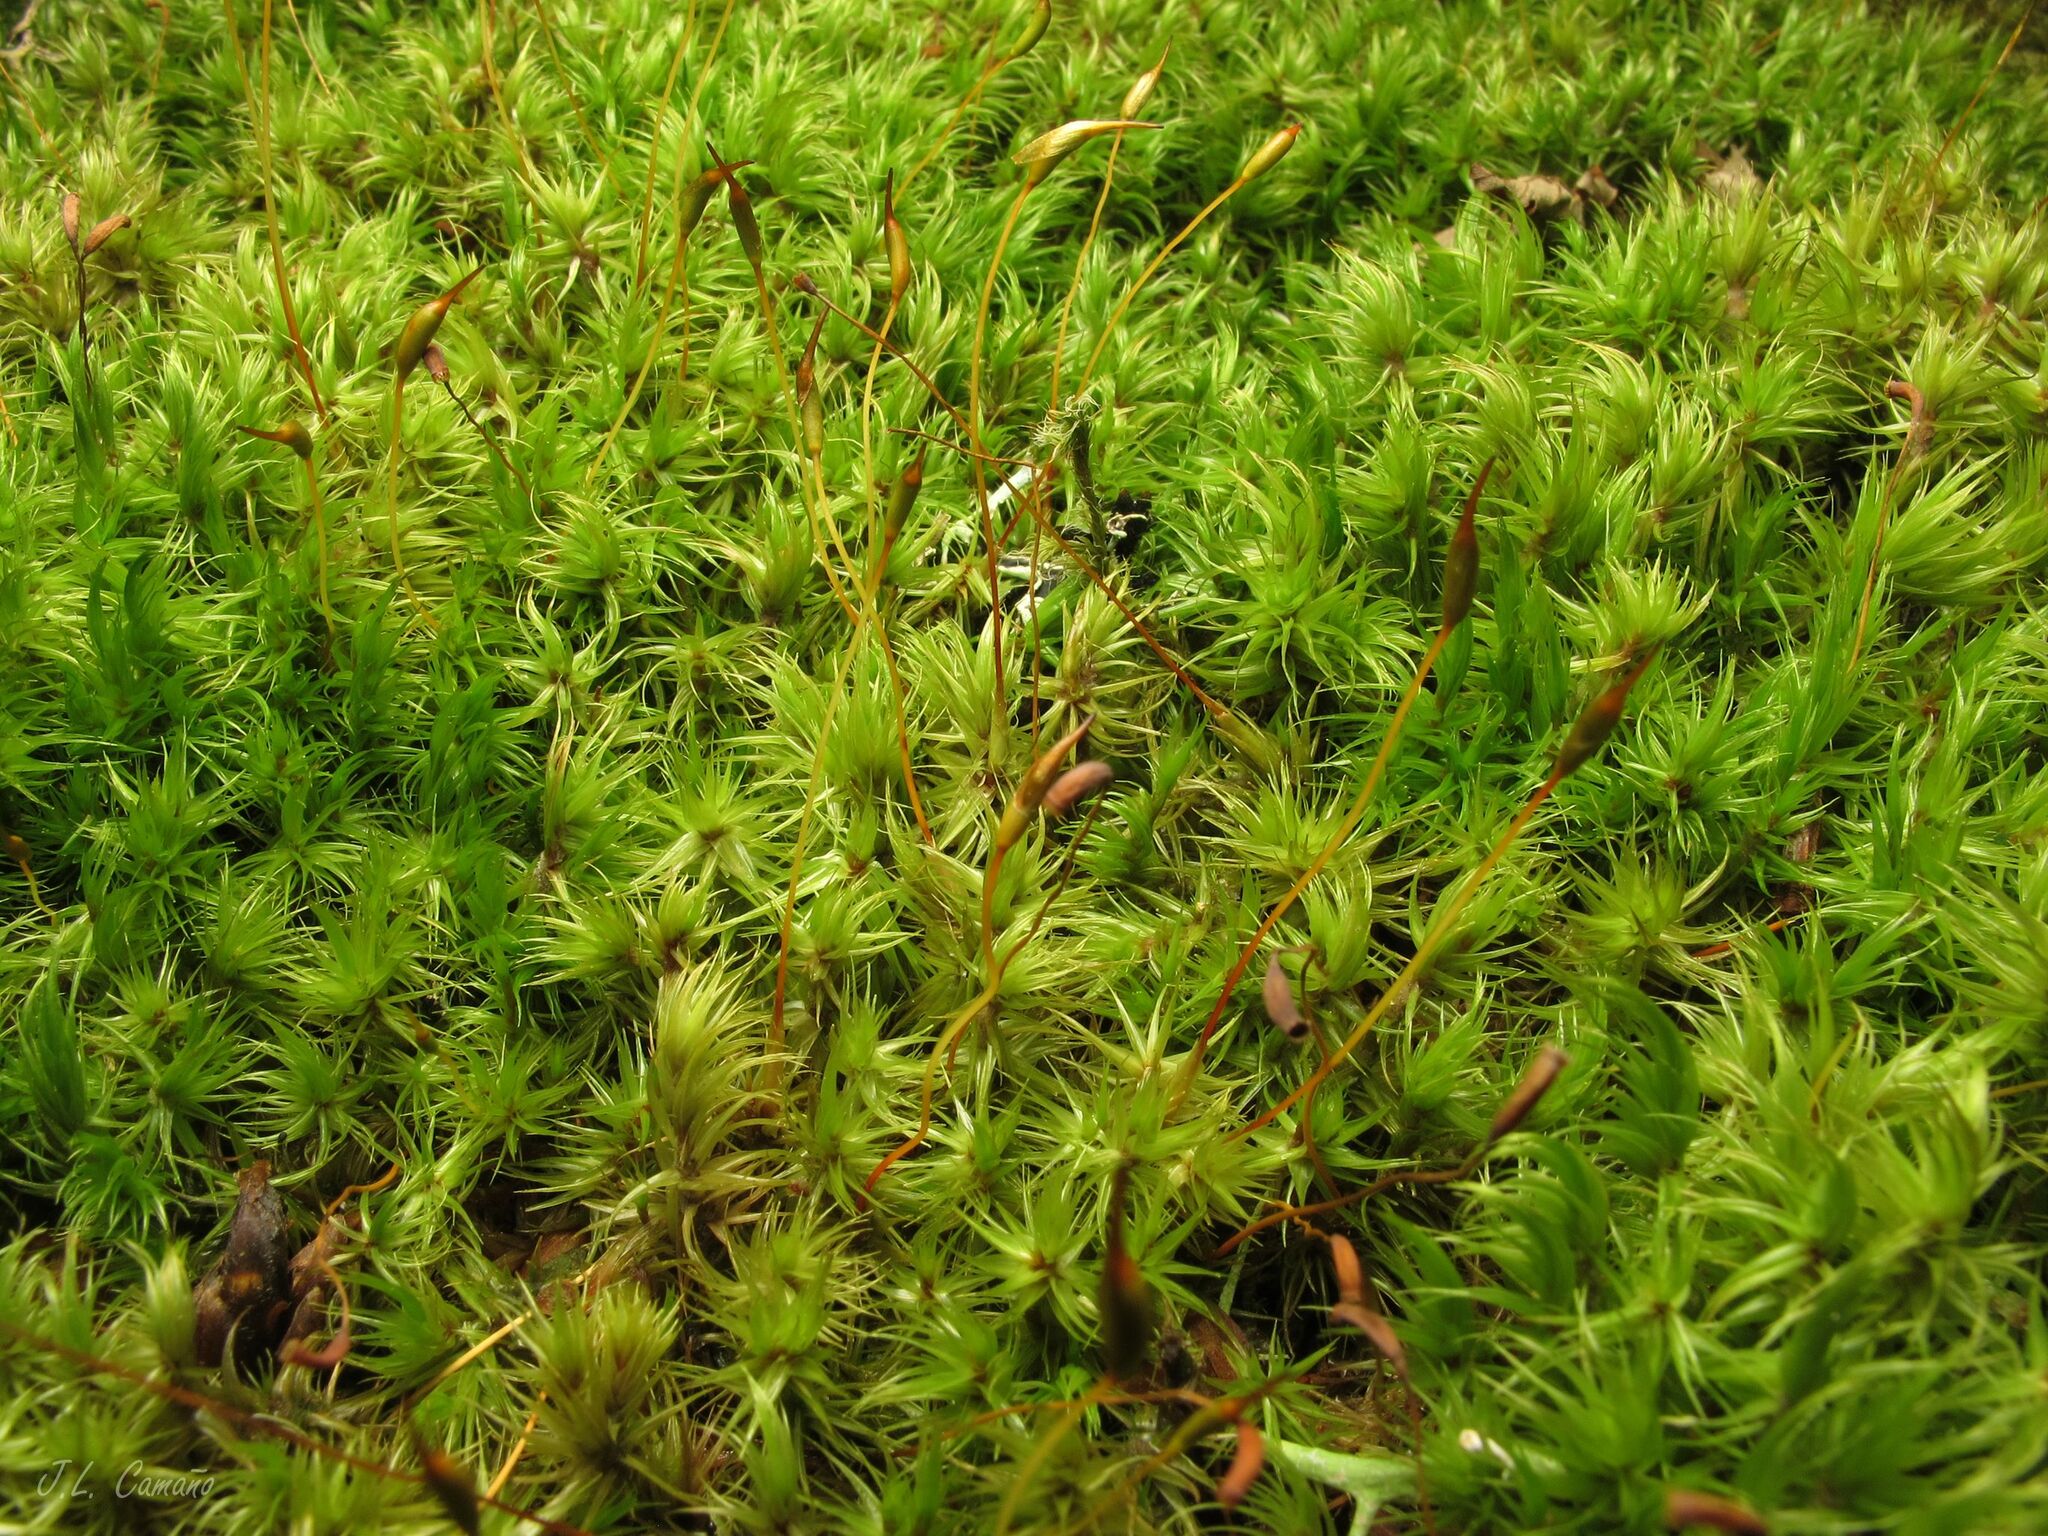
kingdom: Plantae
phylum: Bryophyta
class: Bryopsida
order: Dicranales
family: Dicranaceae
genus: Dicranum
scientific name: Dicranum scoparium
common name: Broom fork-moss
